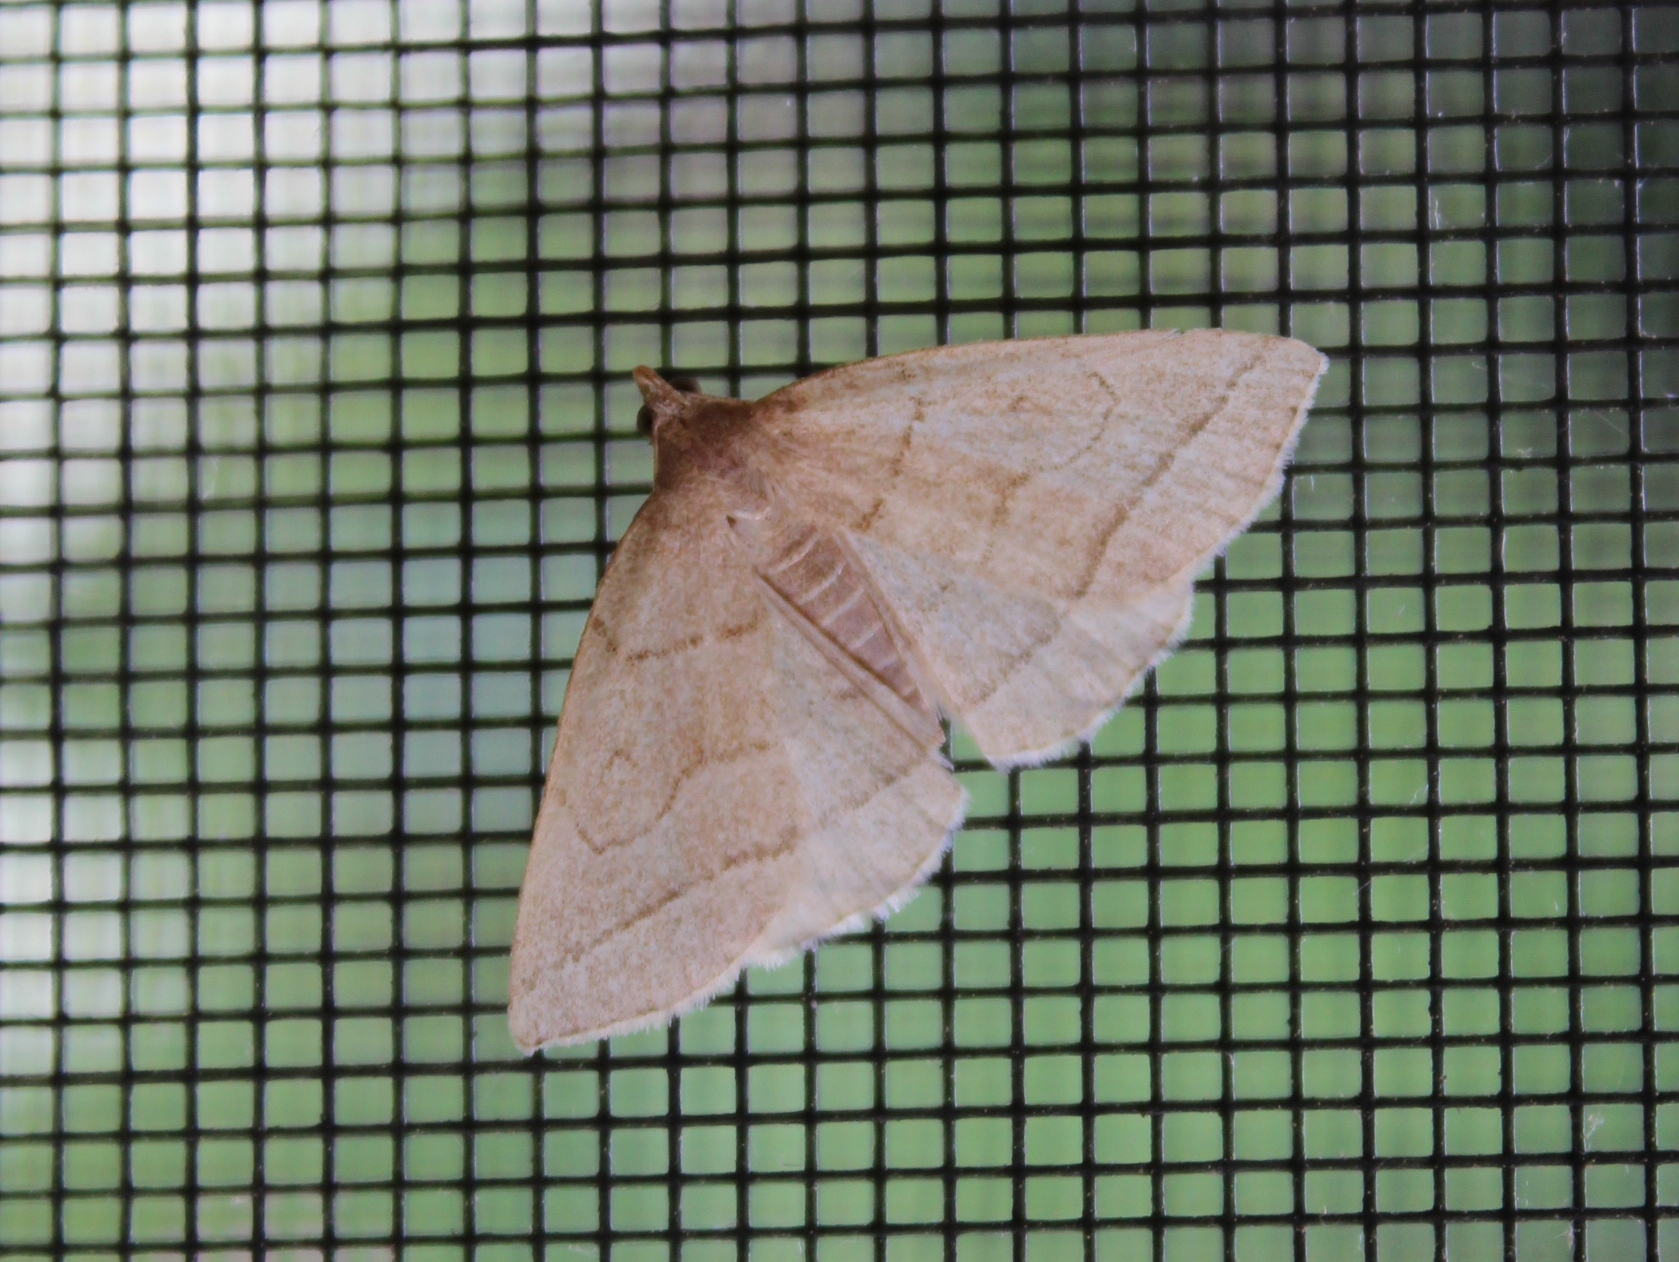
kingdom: Animalia
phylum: Arthropoda
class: Insecta
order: Lepidoptera
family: Erebidae
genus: Zanclognatha
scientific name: Zanclognatha cruralis
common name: Early fan-foot
